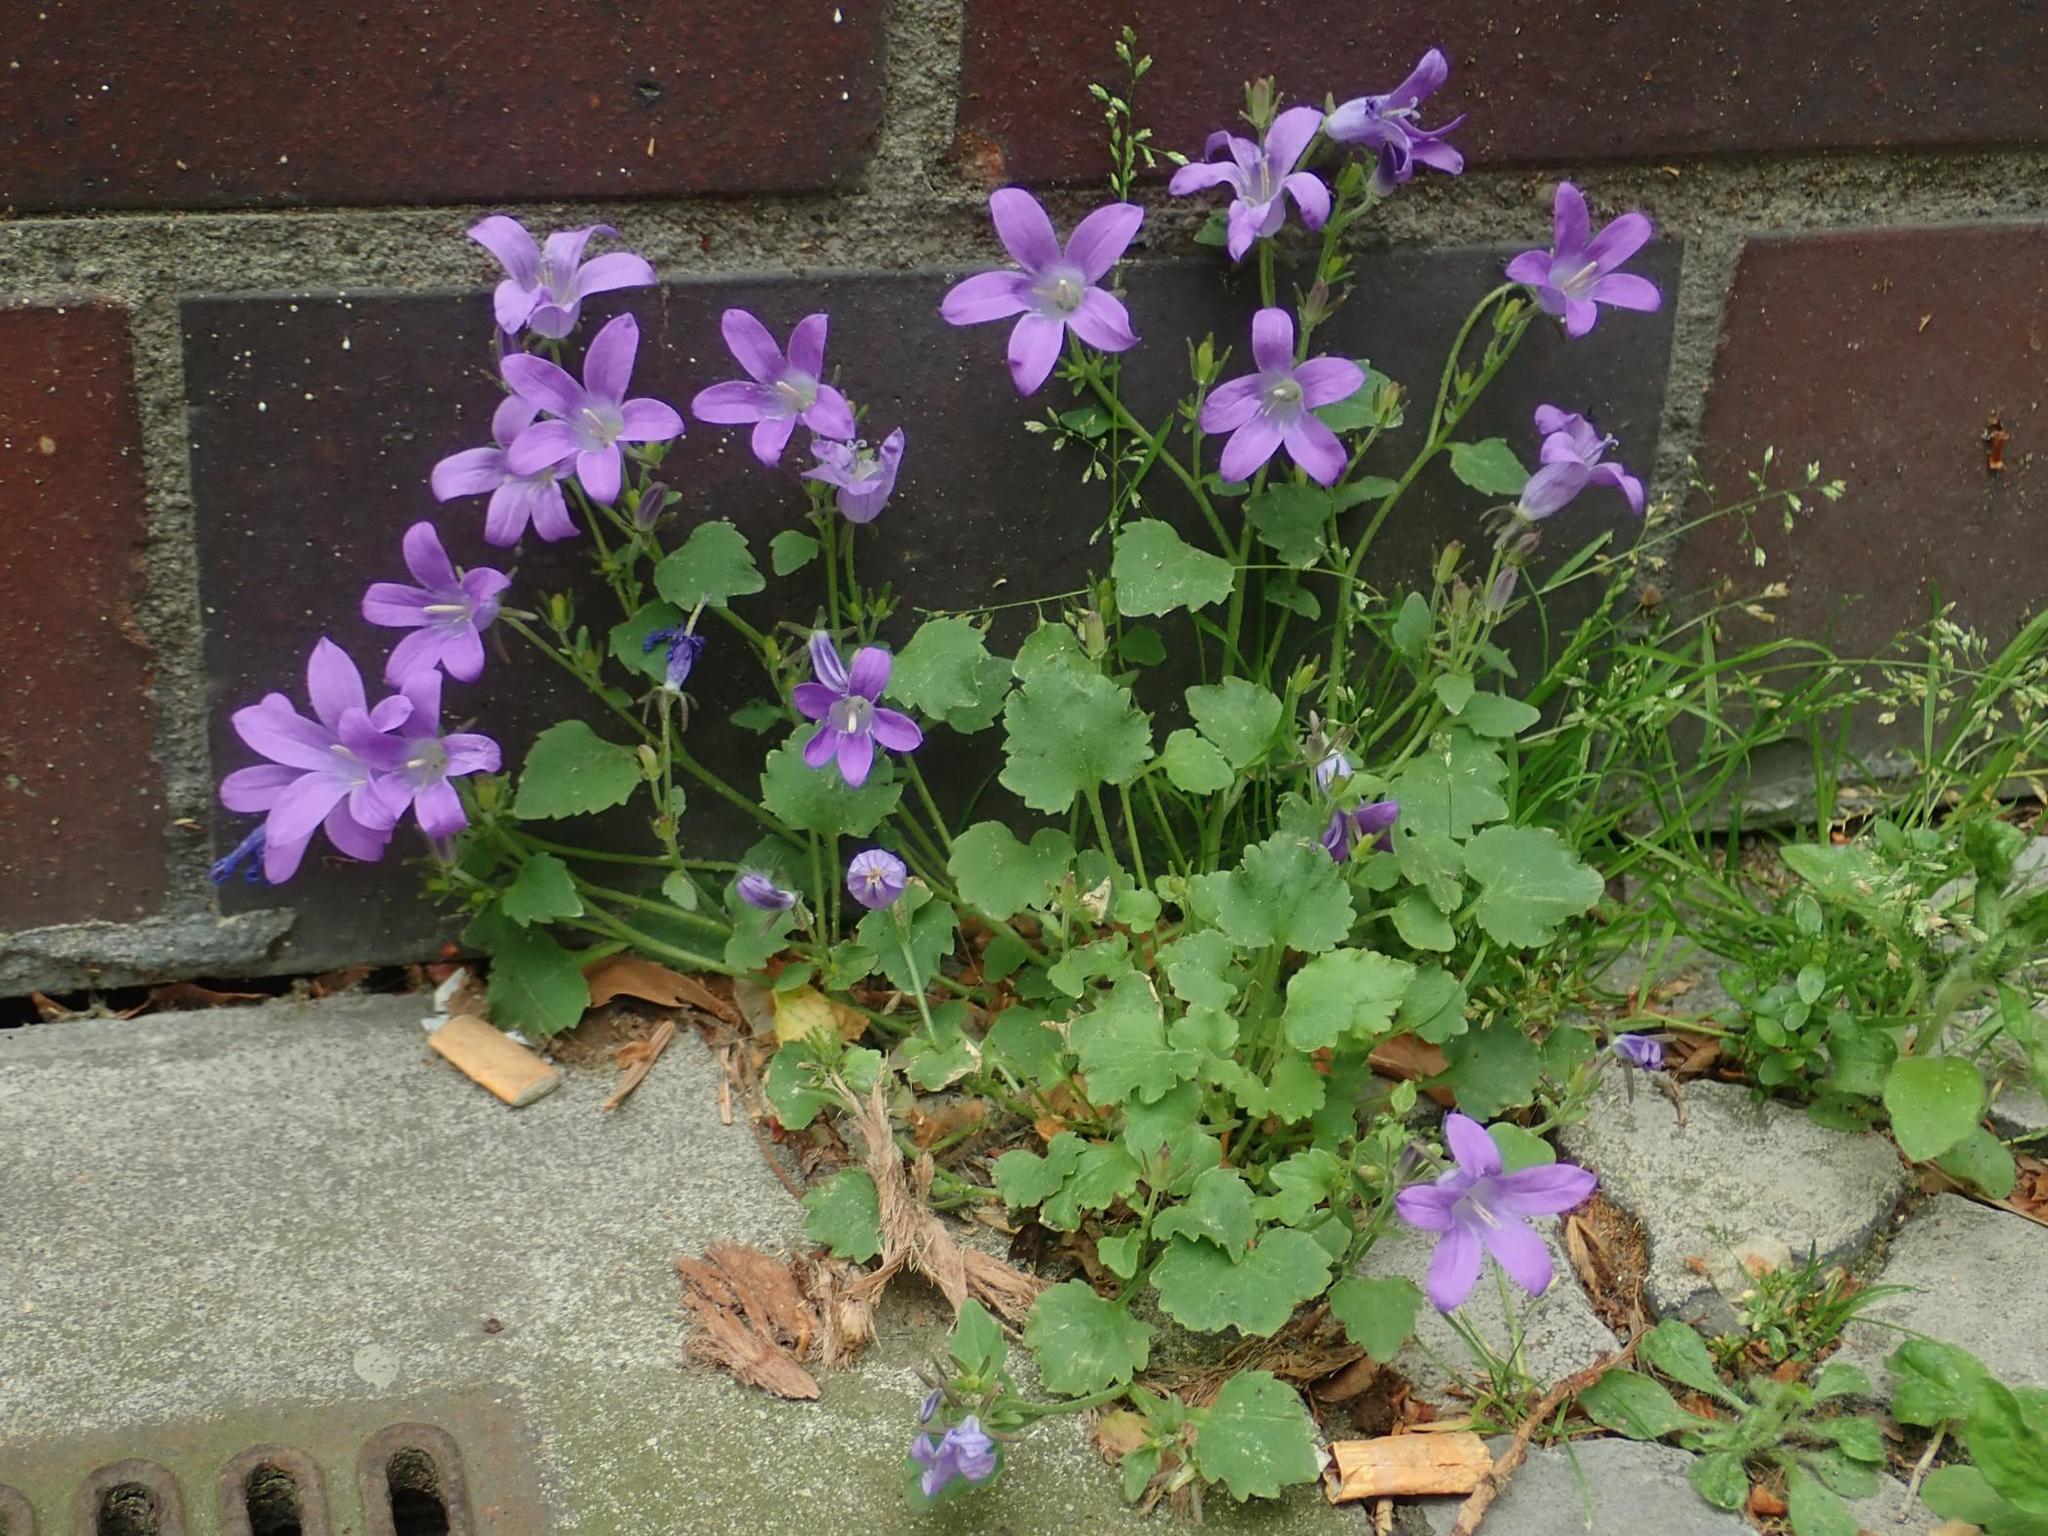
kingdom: Plantae
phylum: Tracheophyta
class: Magnoliopsida
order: Asterales
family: Campanulaceae
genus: Campanula
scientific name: Campanula poscharskyana
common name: Trailing bellflower
